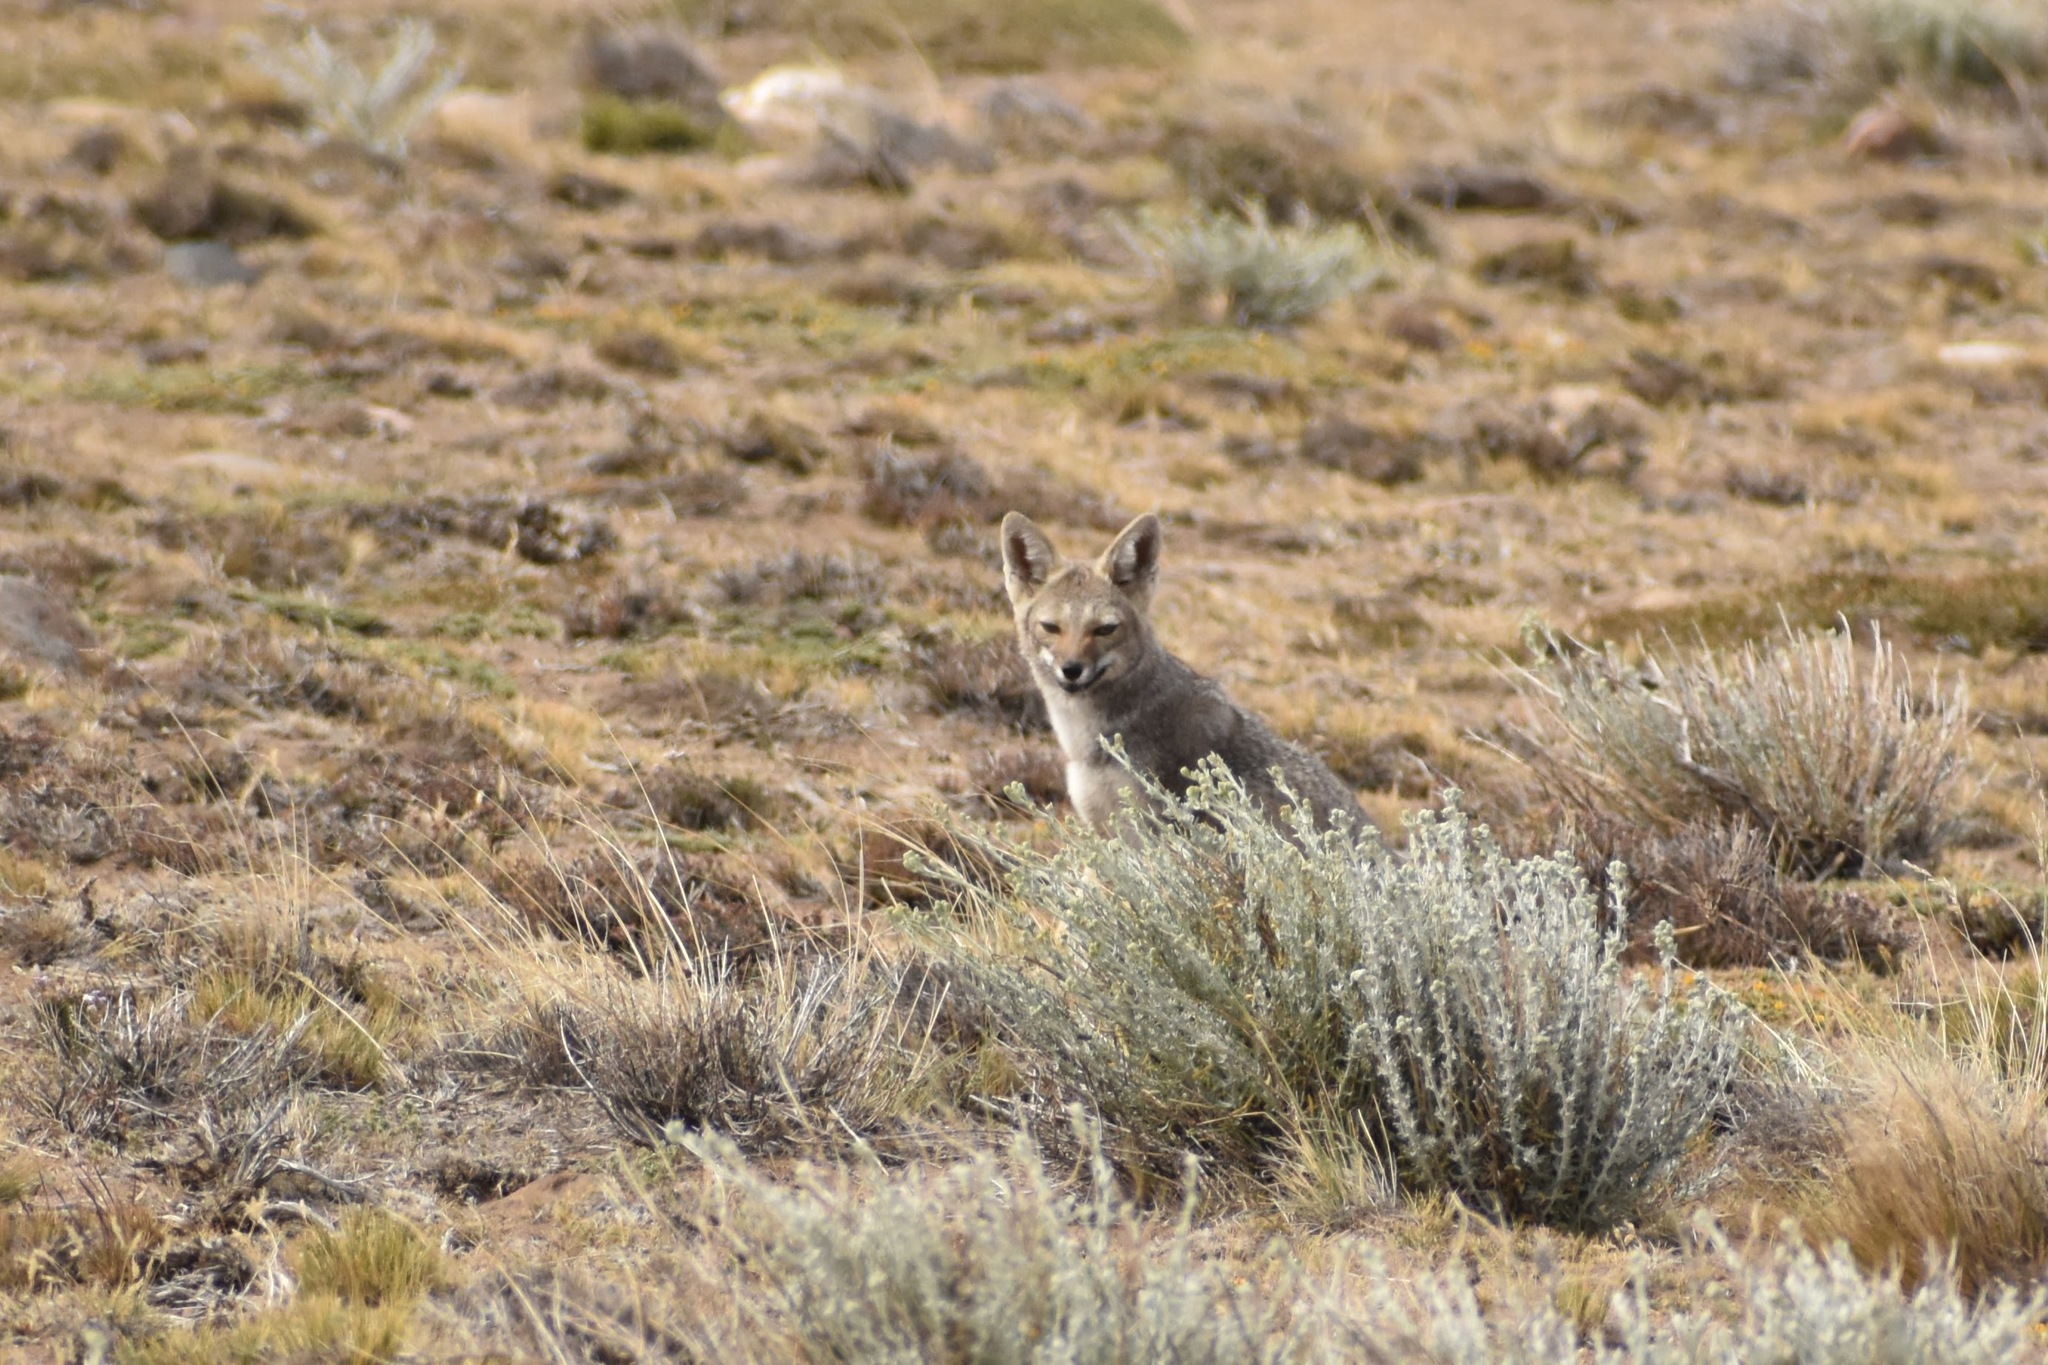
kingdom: Animalia
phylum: Chordata
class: Mammalia
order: Carnivora
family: Canidae
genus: Lycalopex
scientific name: Lycalopex gymnocercus
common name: Pampas fox
